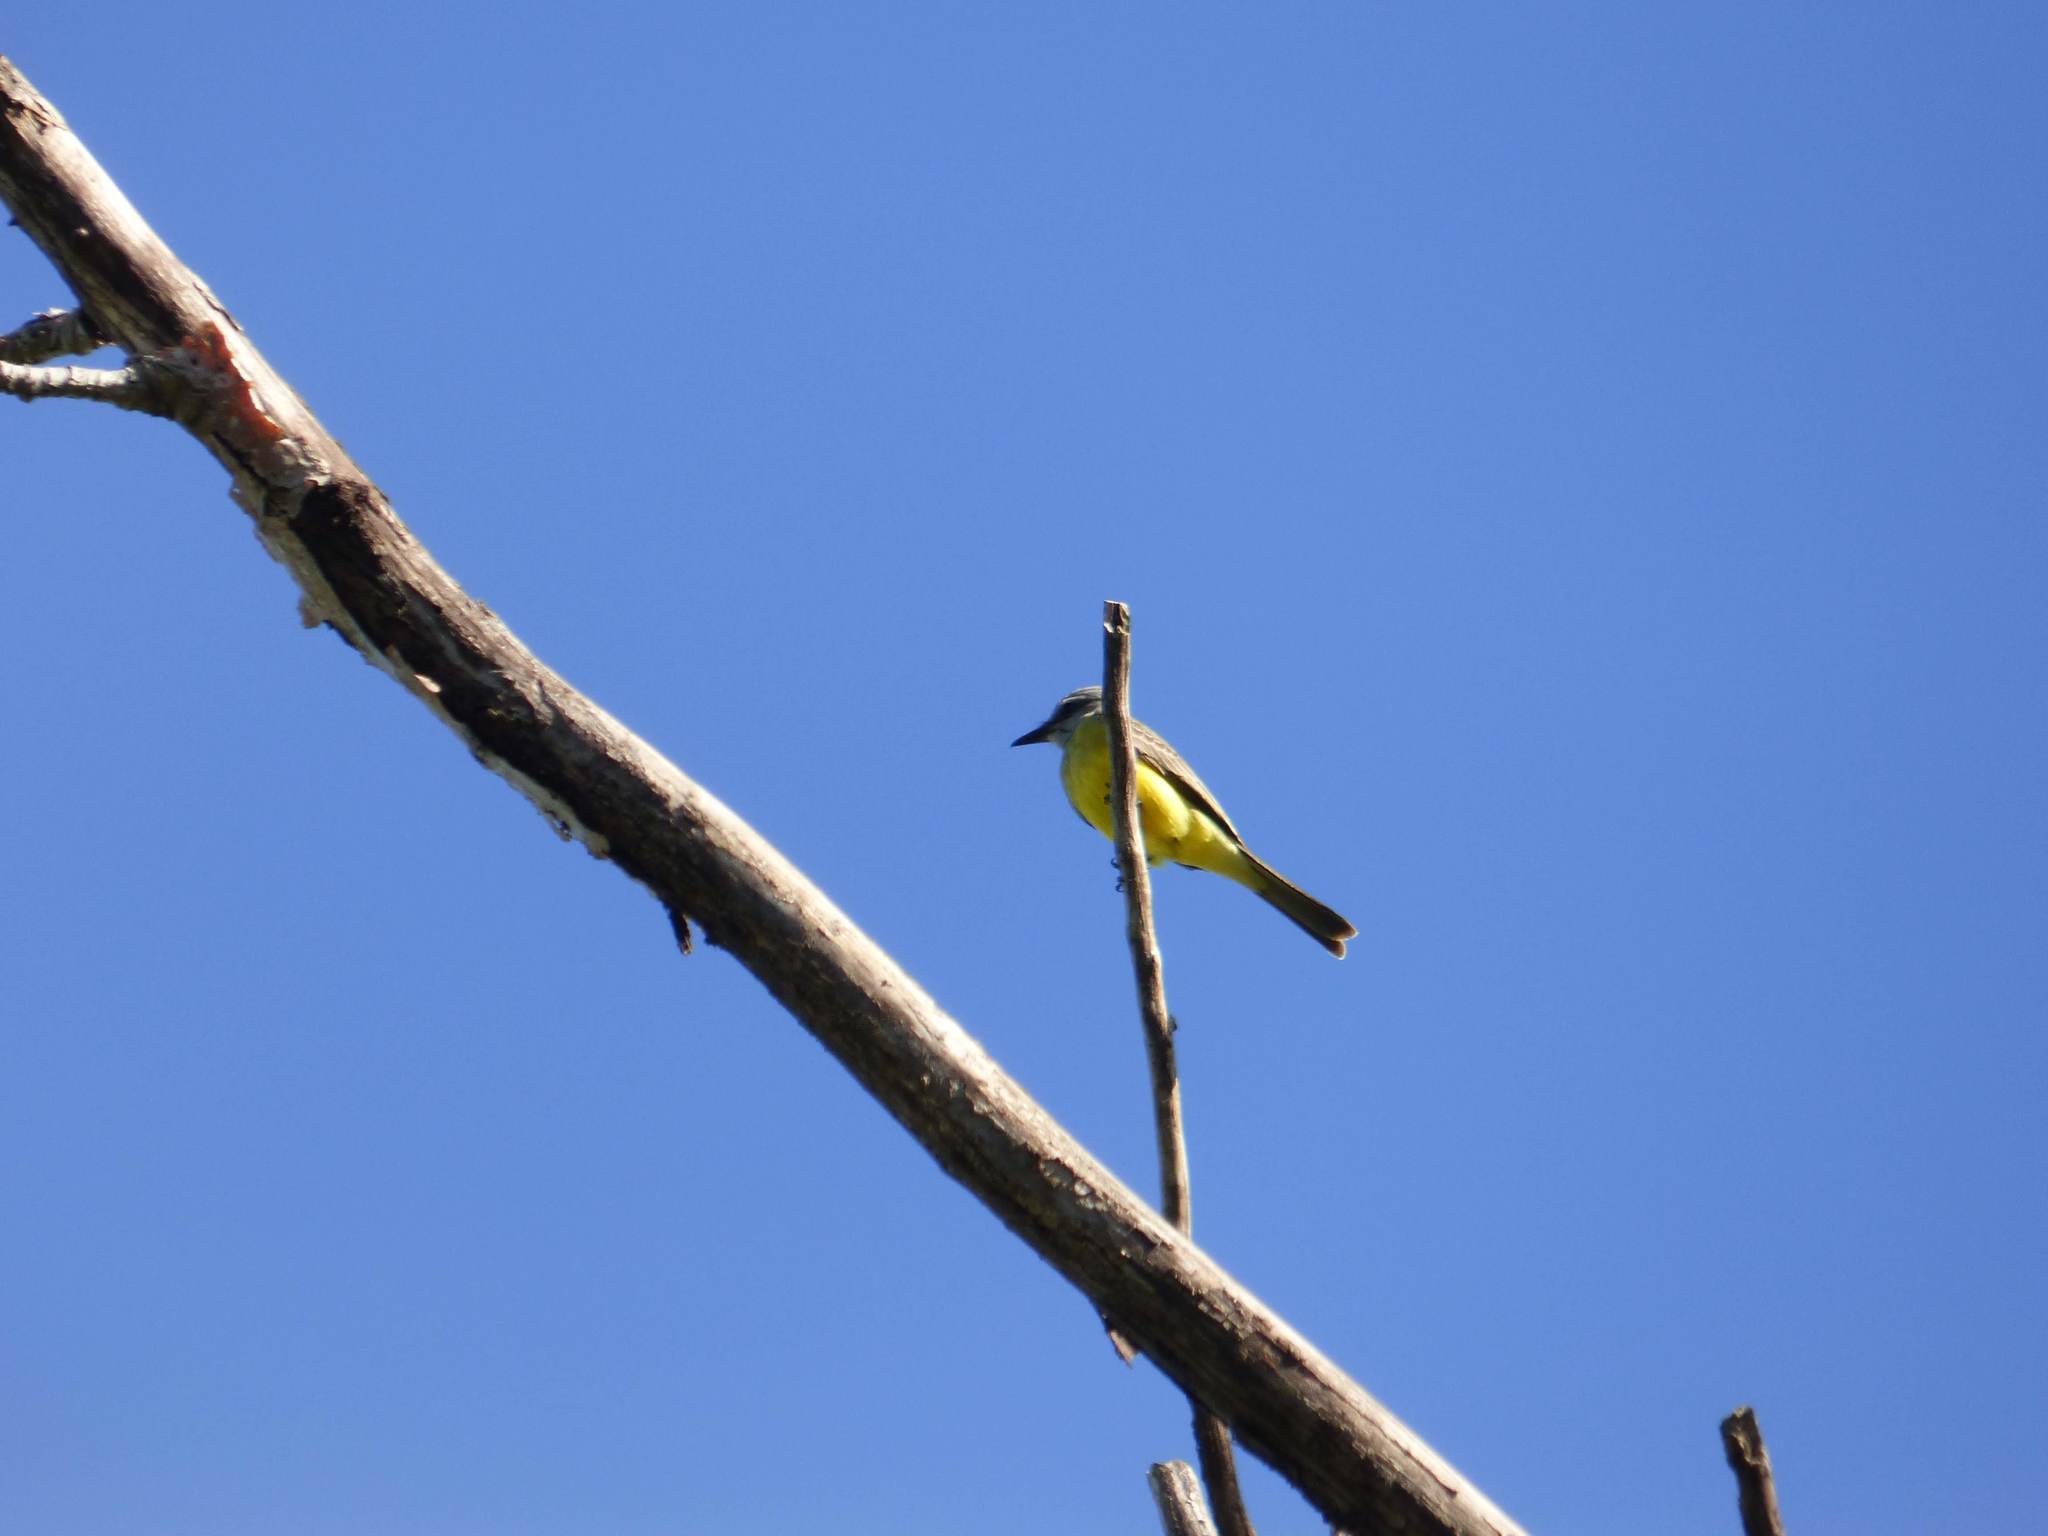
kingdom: Animalia
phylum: Chordata
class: Aves
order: Passeriformes
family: Tyrannidae
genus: Tyrannus
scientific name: Tyrannus melancholicus
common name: Tropical kingbird
